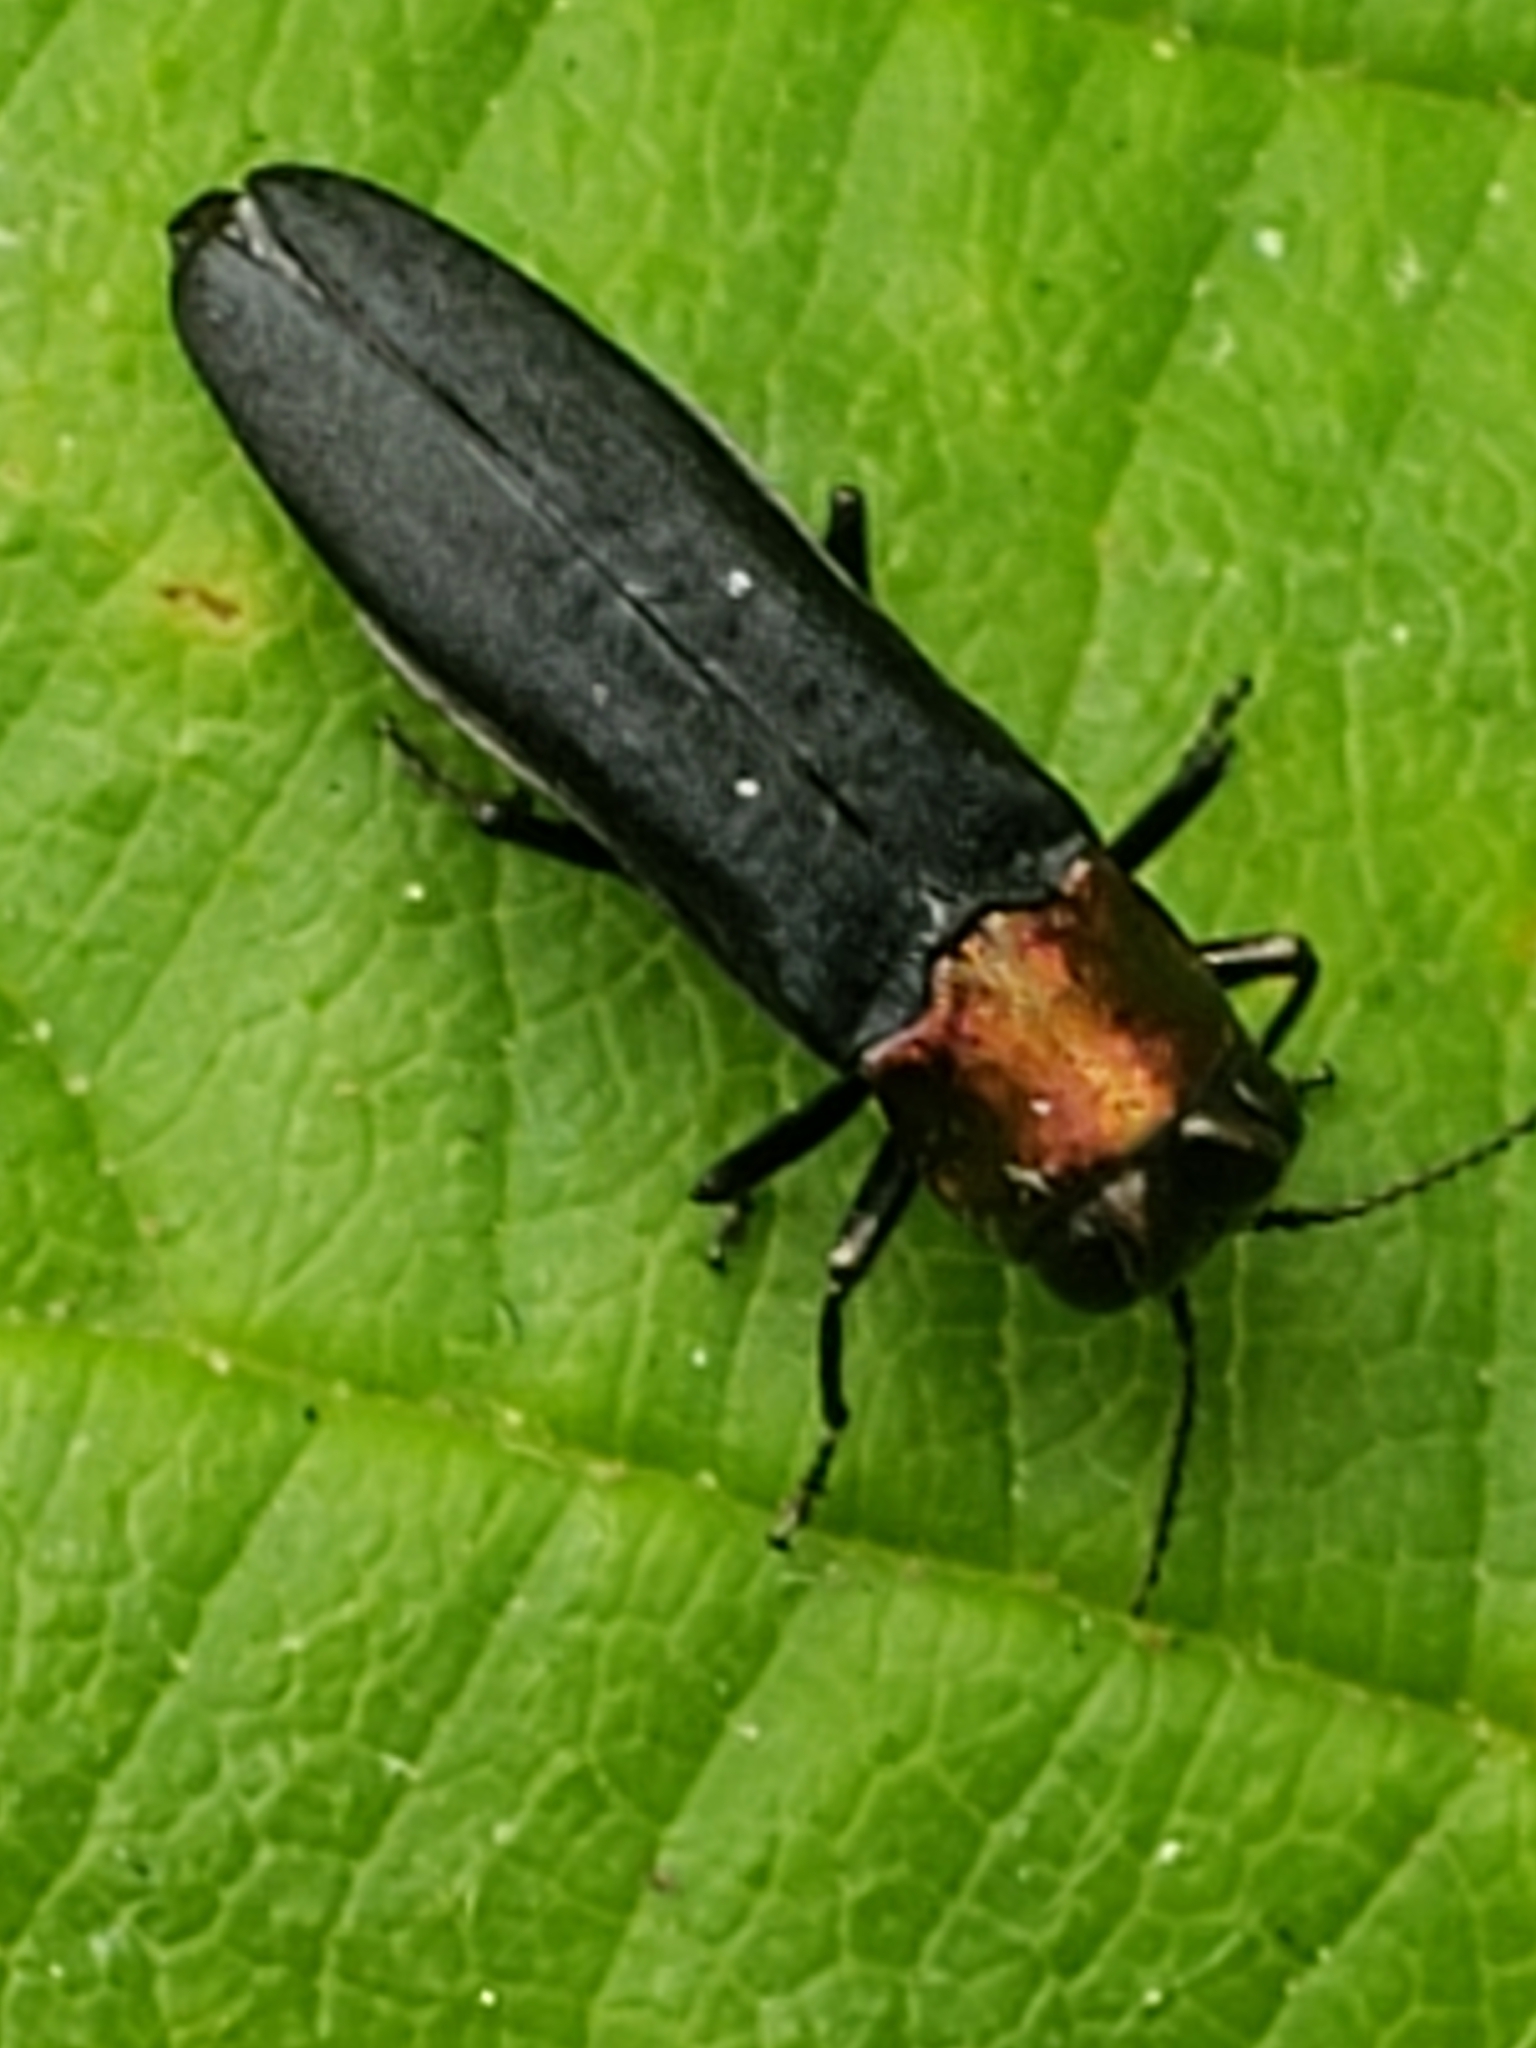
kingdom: Animalia
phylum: Arthropoda
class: Insecta
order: Coleoptera
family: Buprestidae
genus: Agrilus
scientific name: Agrilus ruficollis
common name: Red-necked cane borer beetle
